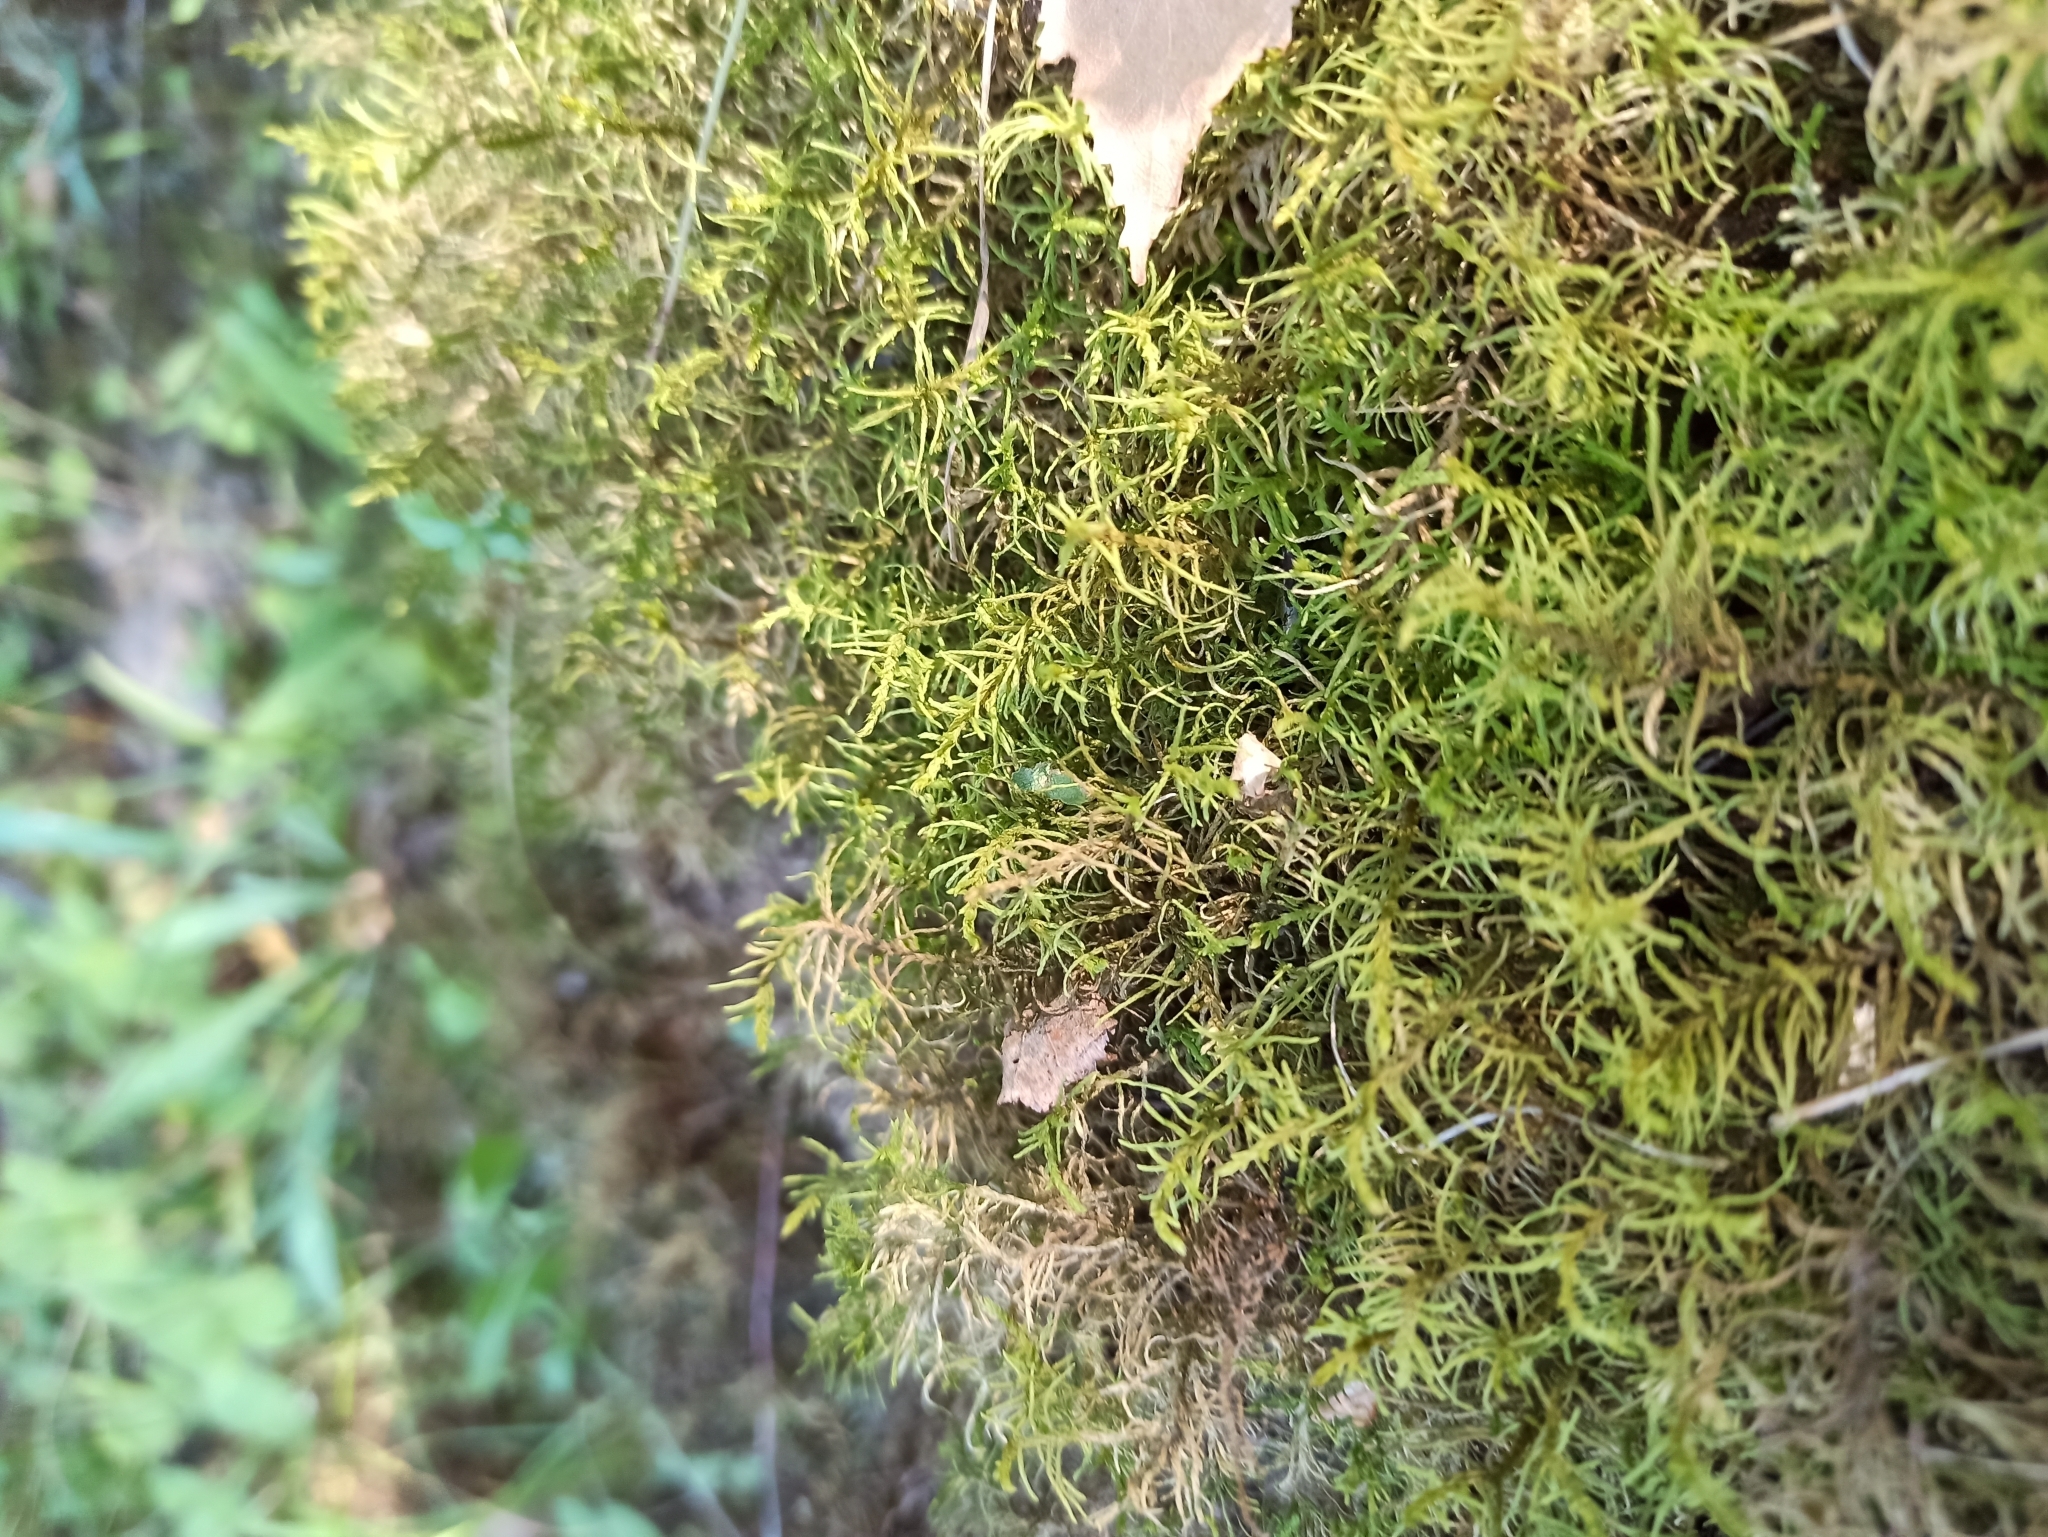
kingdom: Plantae
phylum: Bryophyta
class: Bryopsida
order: Hypnales
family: Thuidiaceae
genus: Abietinella
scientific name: Abietinella abietina
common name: Wiry fern moss
